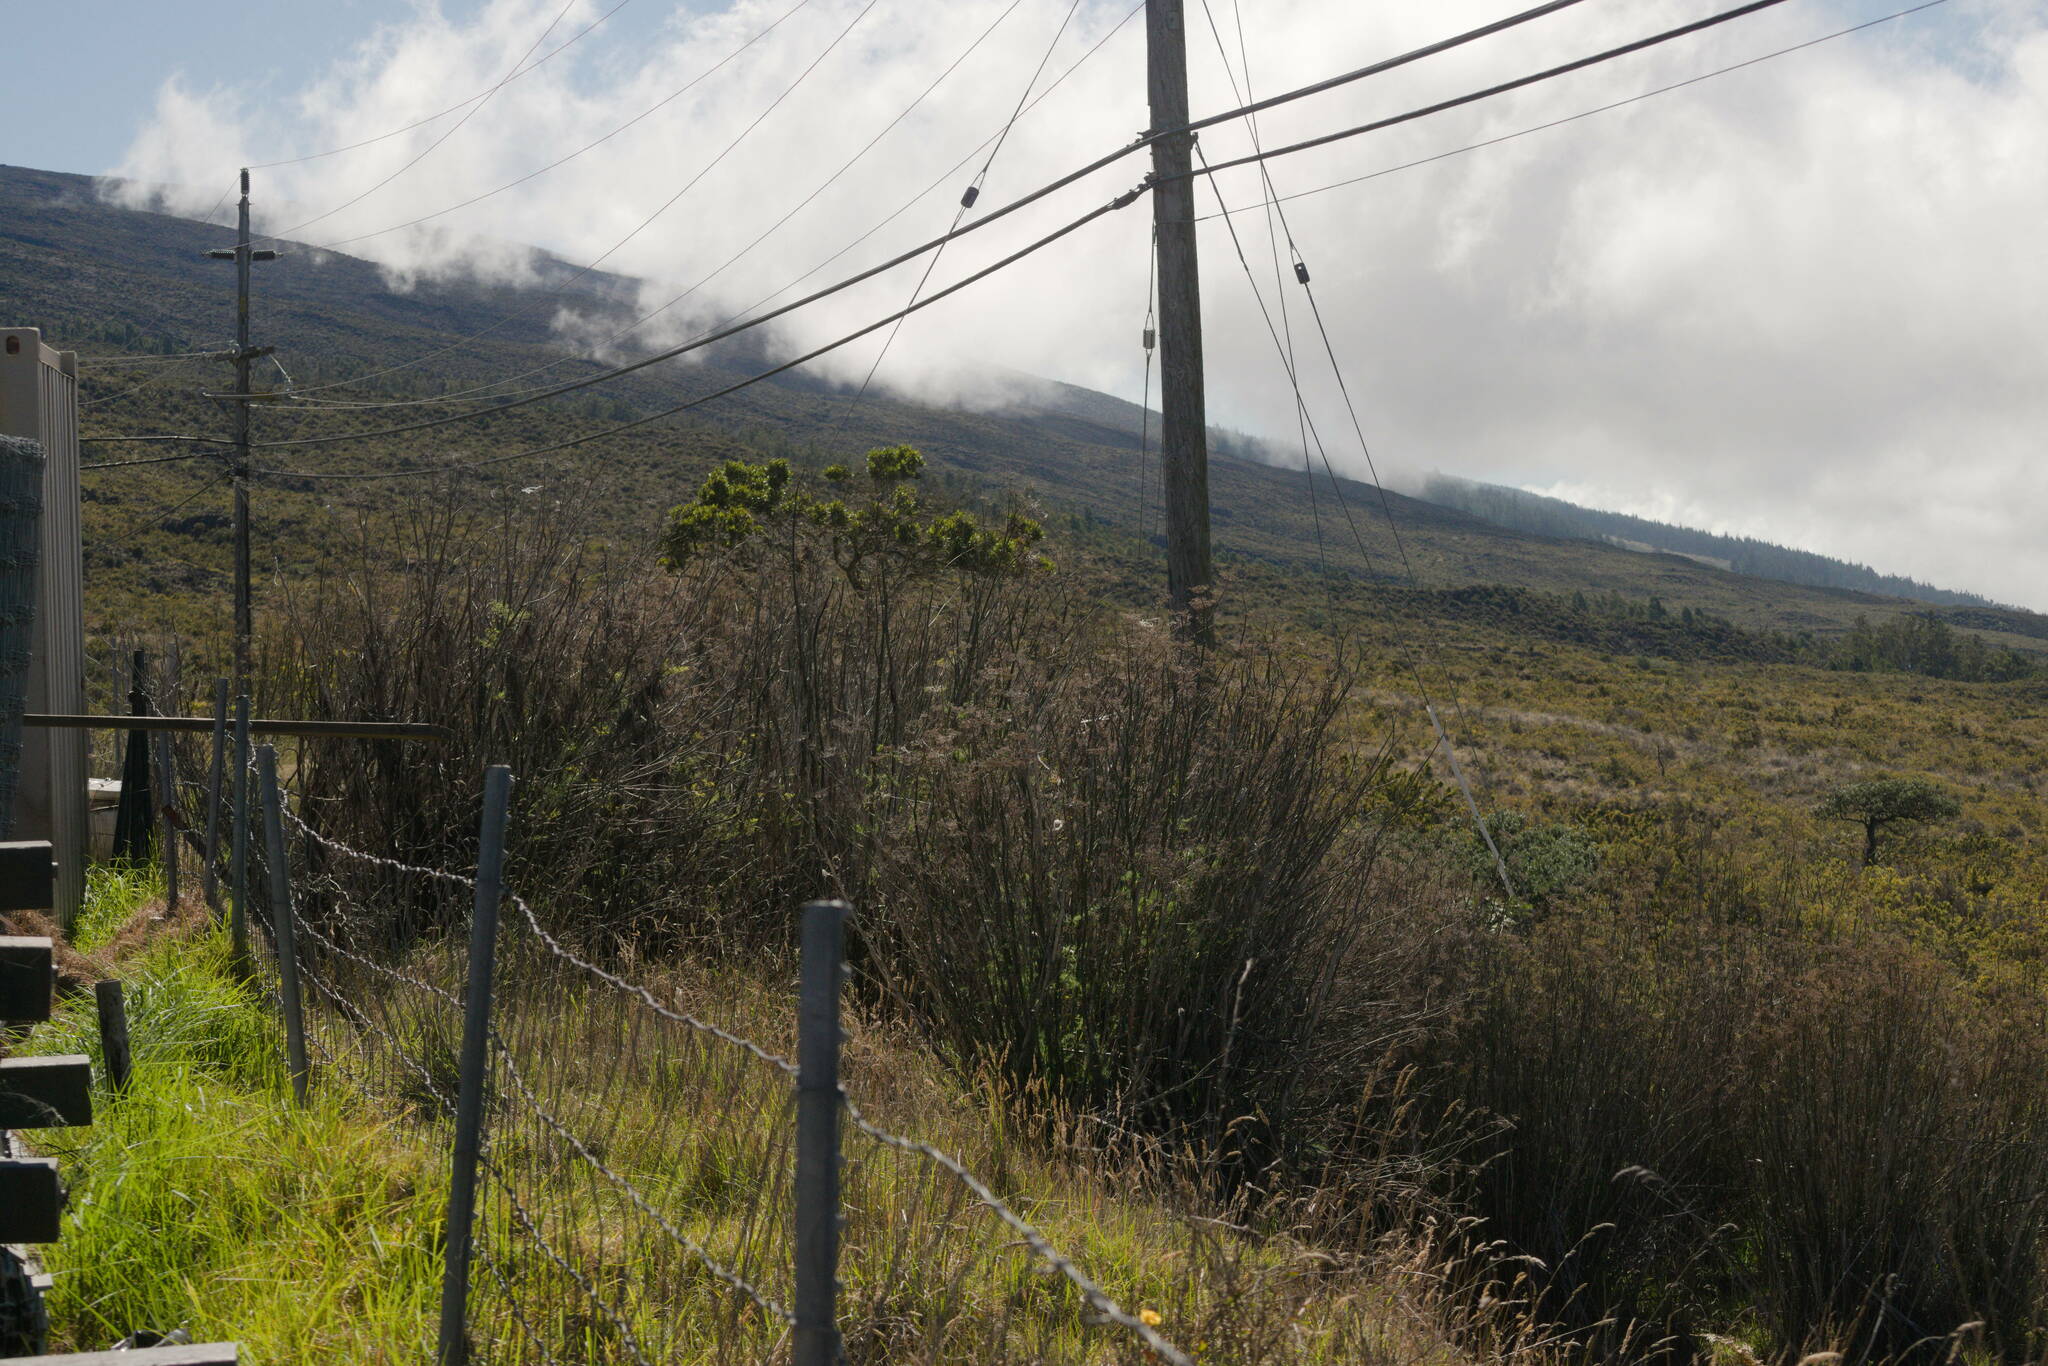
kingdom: Plantae
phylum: Tracheophyta
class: Magnoliopsida
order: Apiales
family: Apiaceae
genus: Foeniculum
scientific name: Foeniculum vulgare
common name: Fennel
